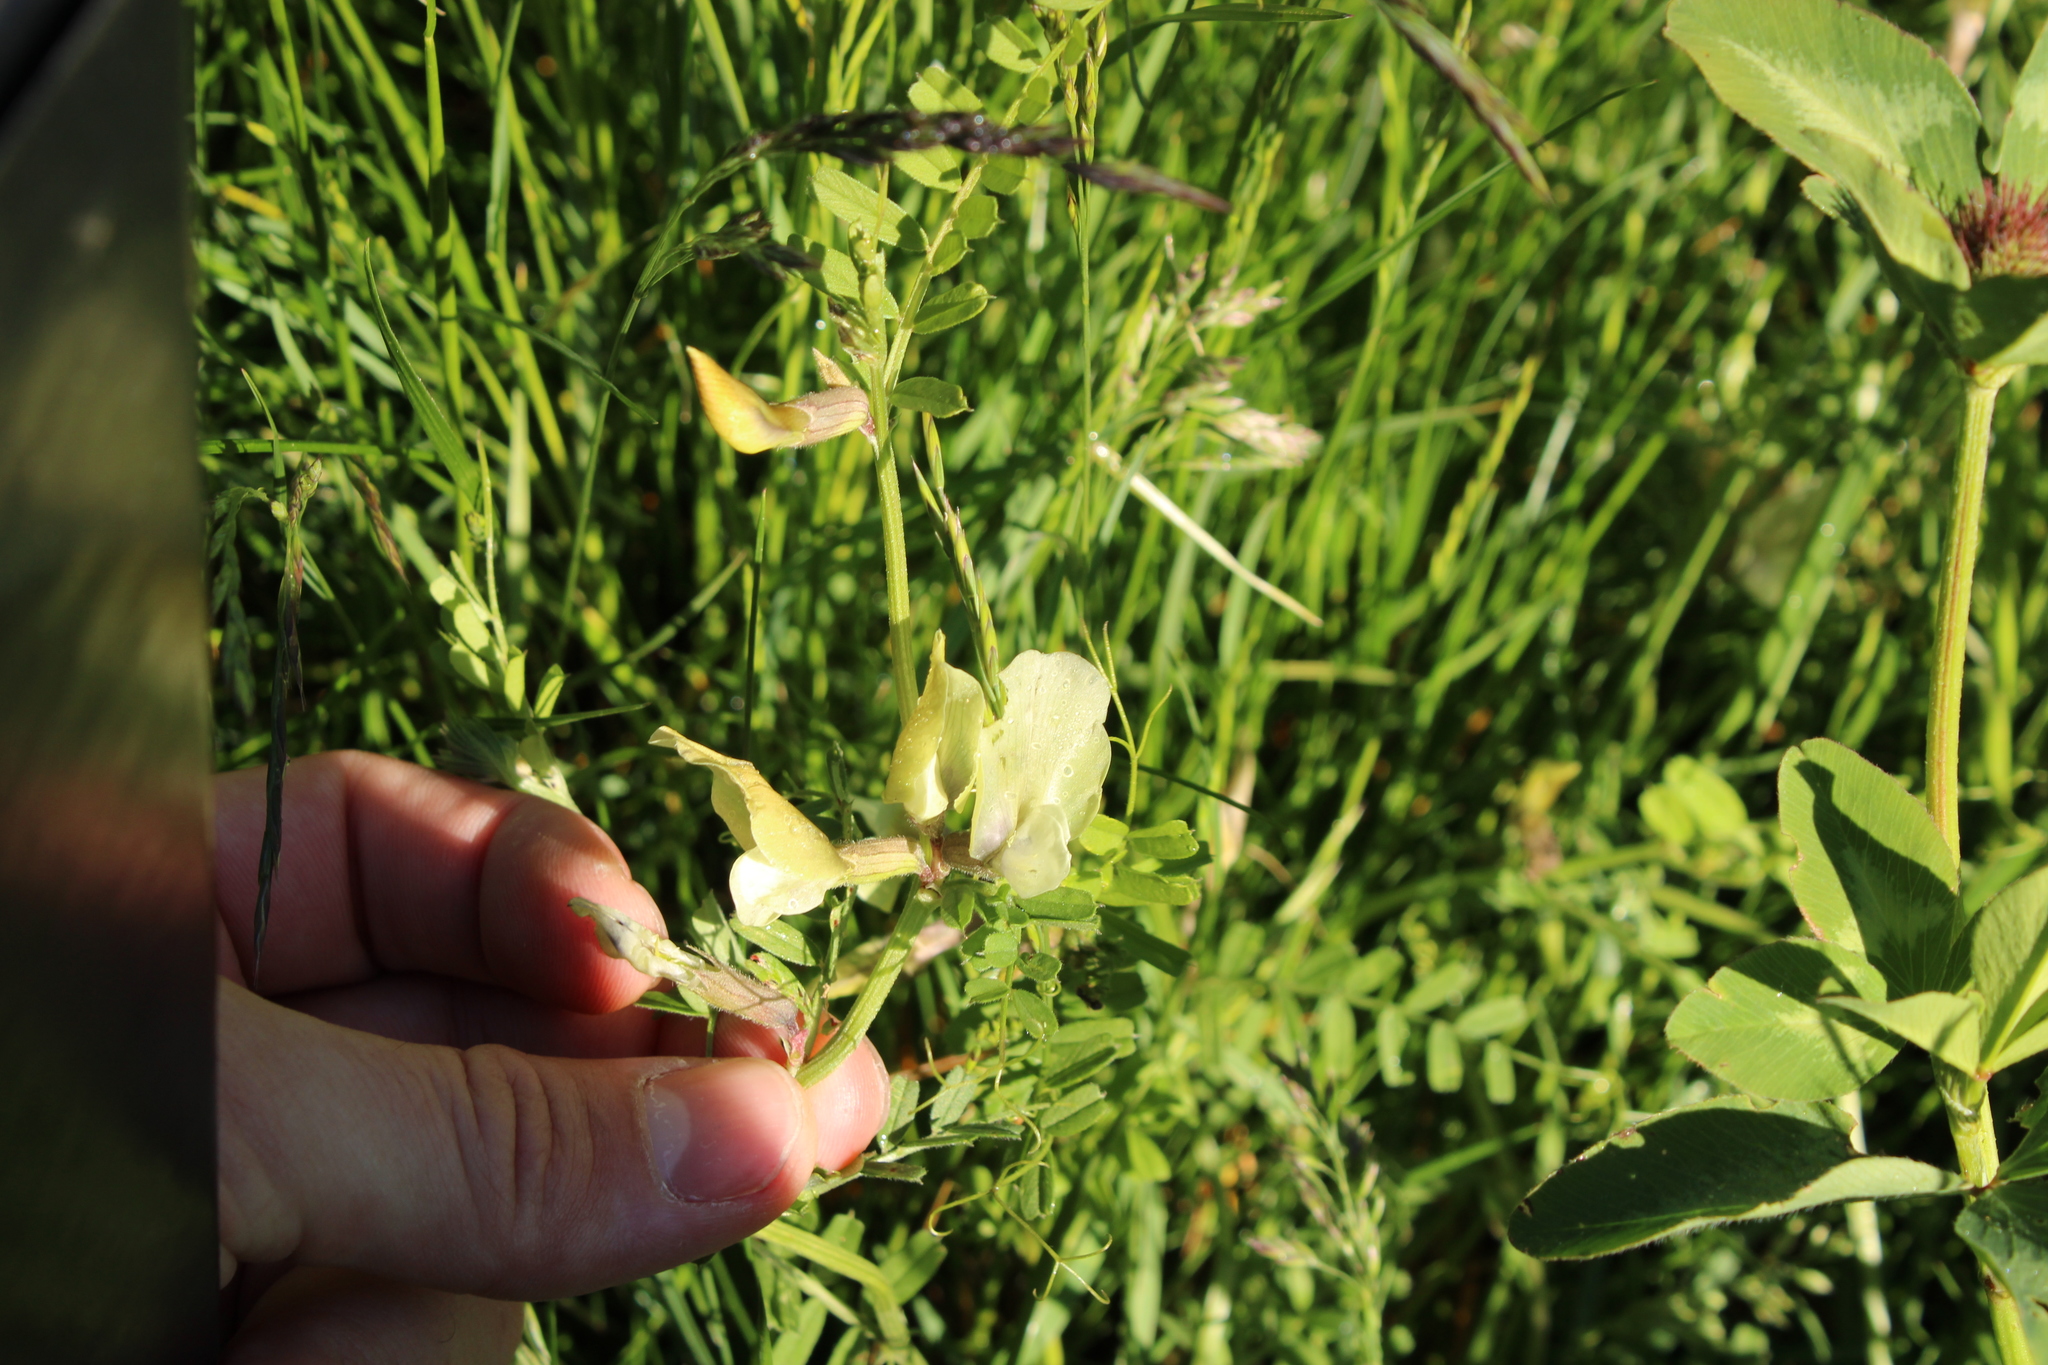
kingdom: Plantae
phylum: Tracheophyta
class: Magnoliopsida
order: Fabales
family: Fabaceae
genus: Vicia
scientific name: Vicia grandiflora
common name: Large yellow vetch
